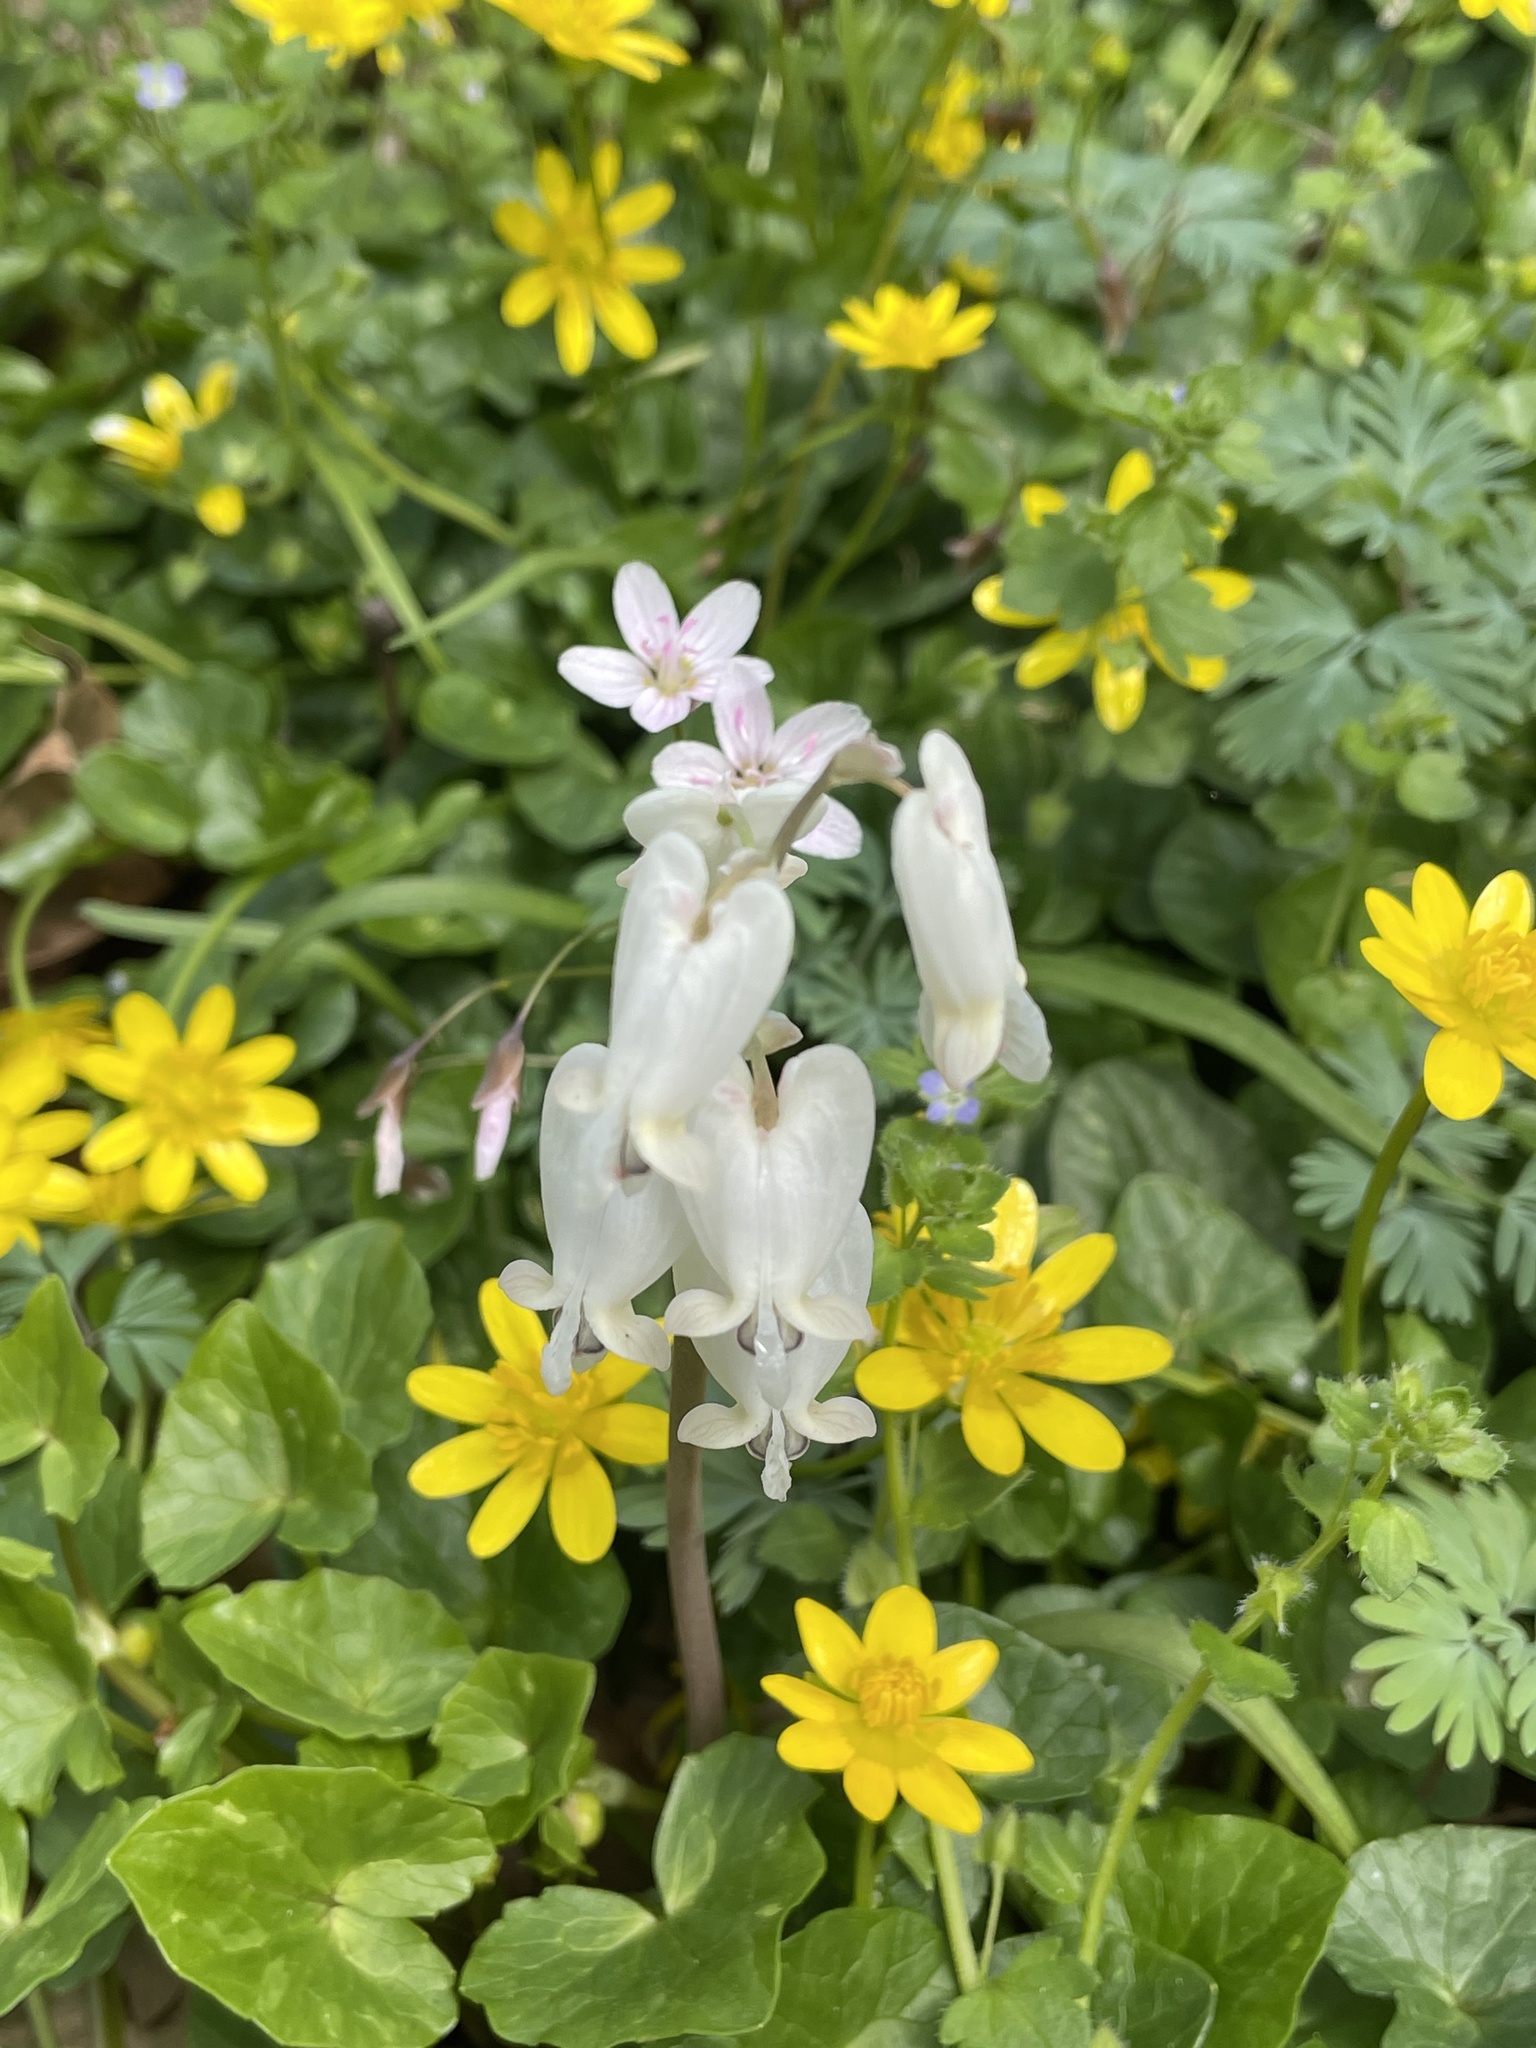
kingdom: Plantae
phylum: Tracheophyta
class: Magnoliopsida
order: Ranunculales
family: Papaveraceae
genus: Dicentra
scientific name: Dicentra canadensis
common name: Squirrel-corn
